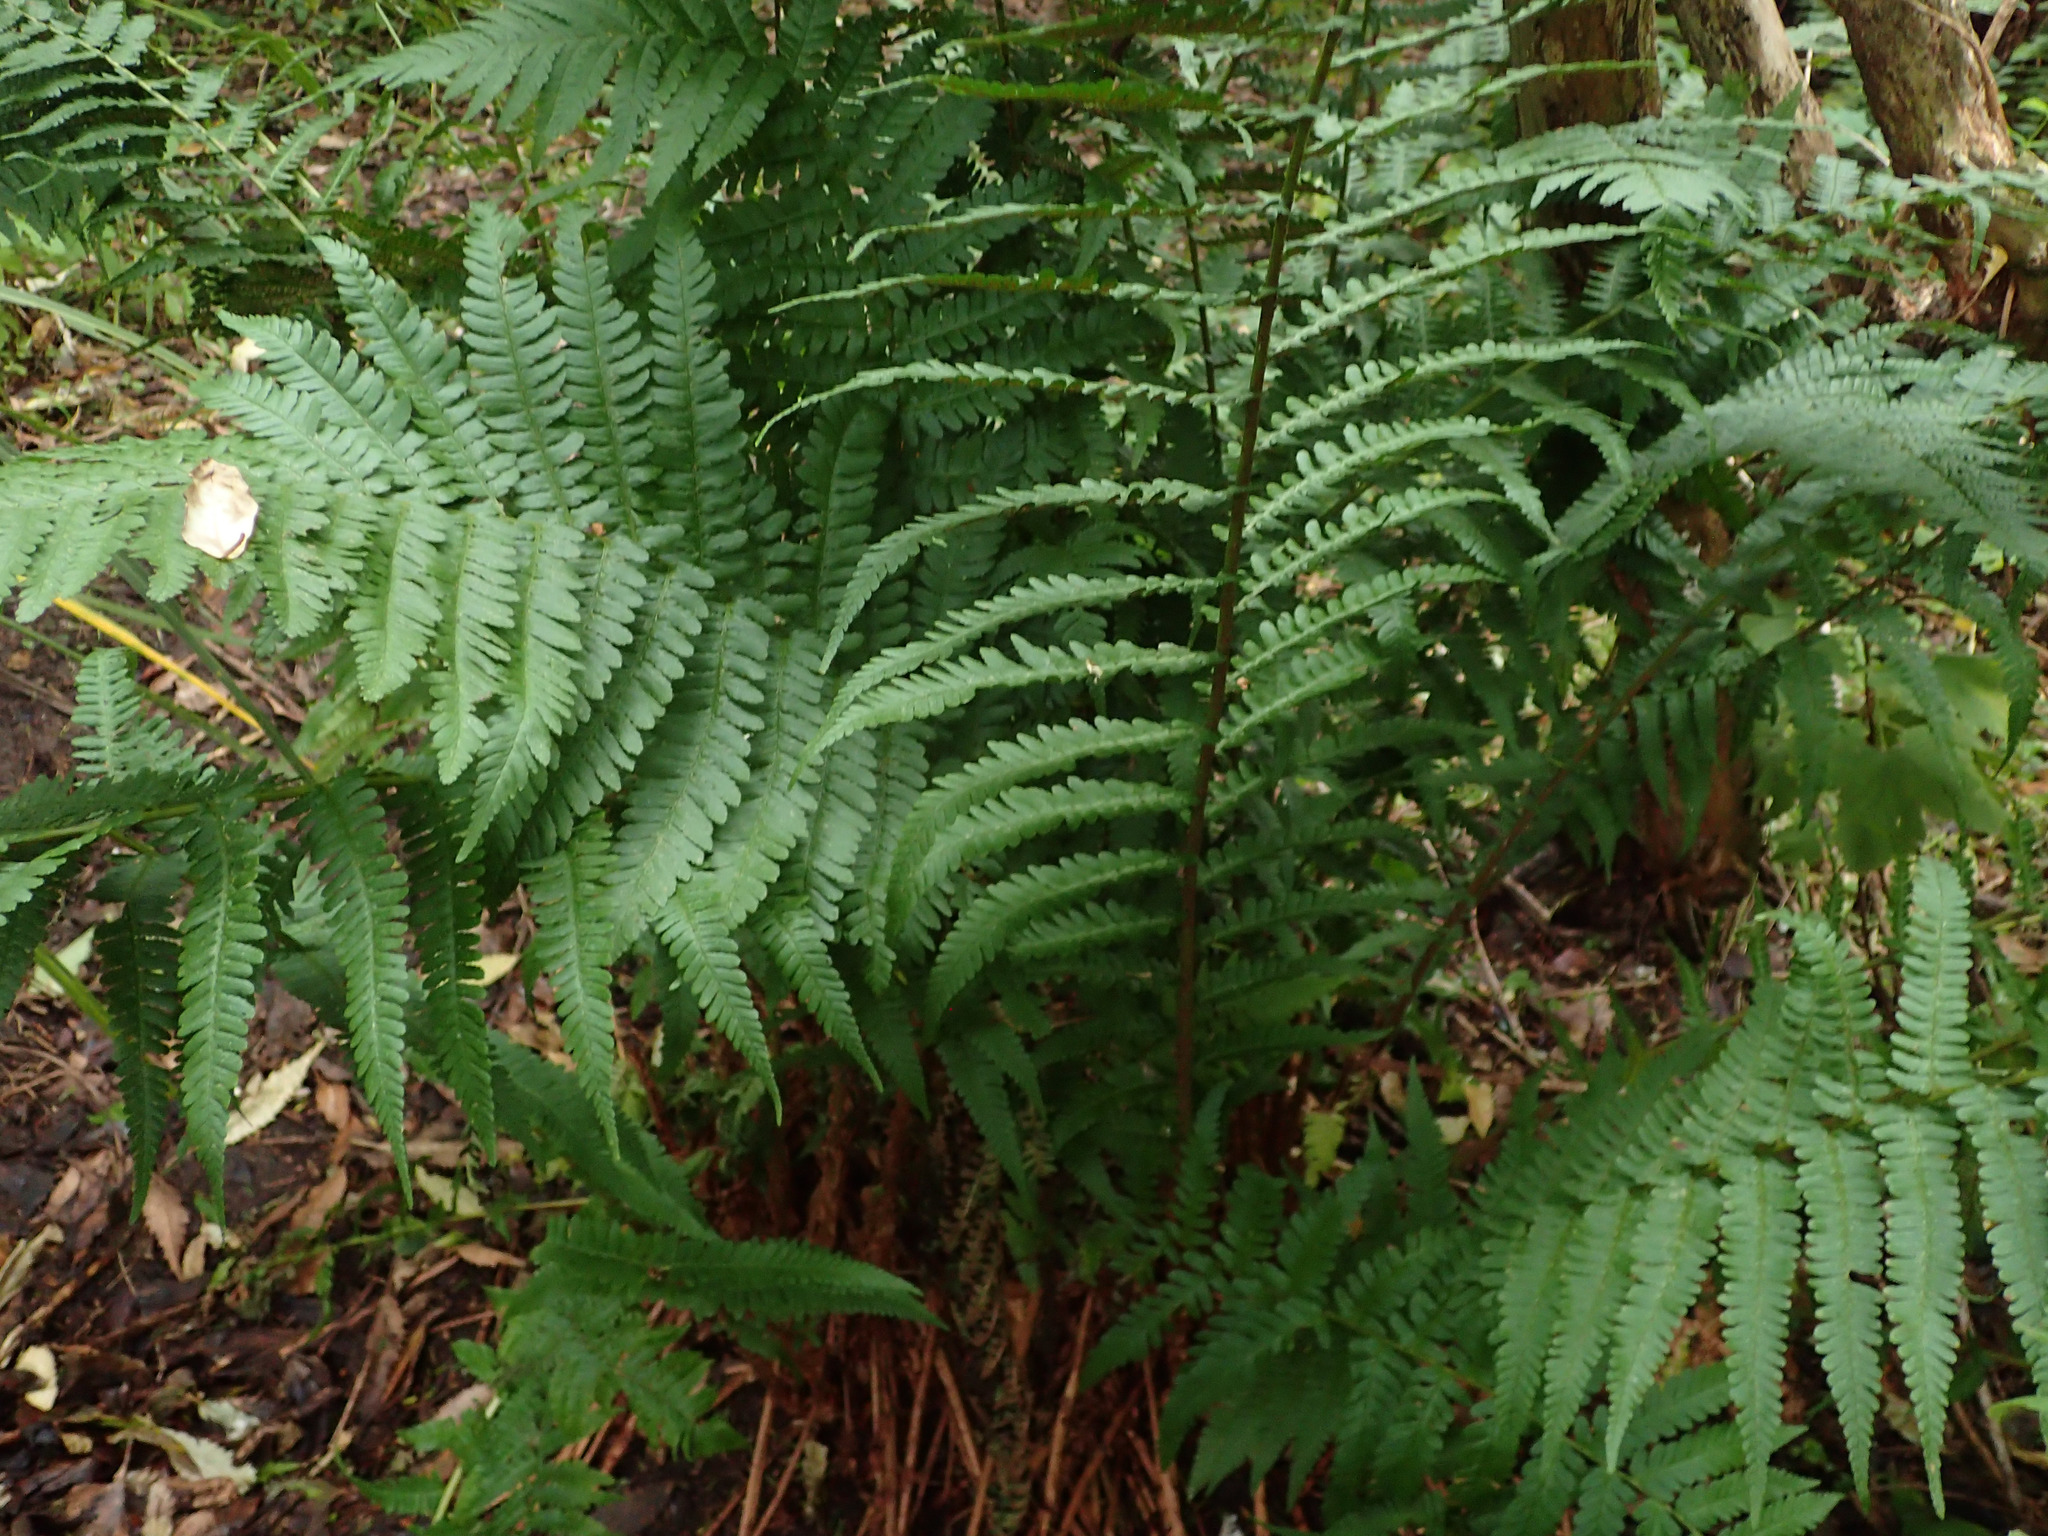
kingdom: Plantae
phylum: Tracheophyta
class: Polypodiopsida
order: Polypodiales
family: Dryopteridaceae
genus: Dryopteris
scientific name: Dryopteris filix-mas
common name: Male fern
